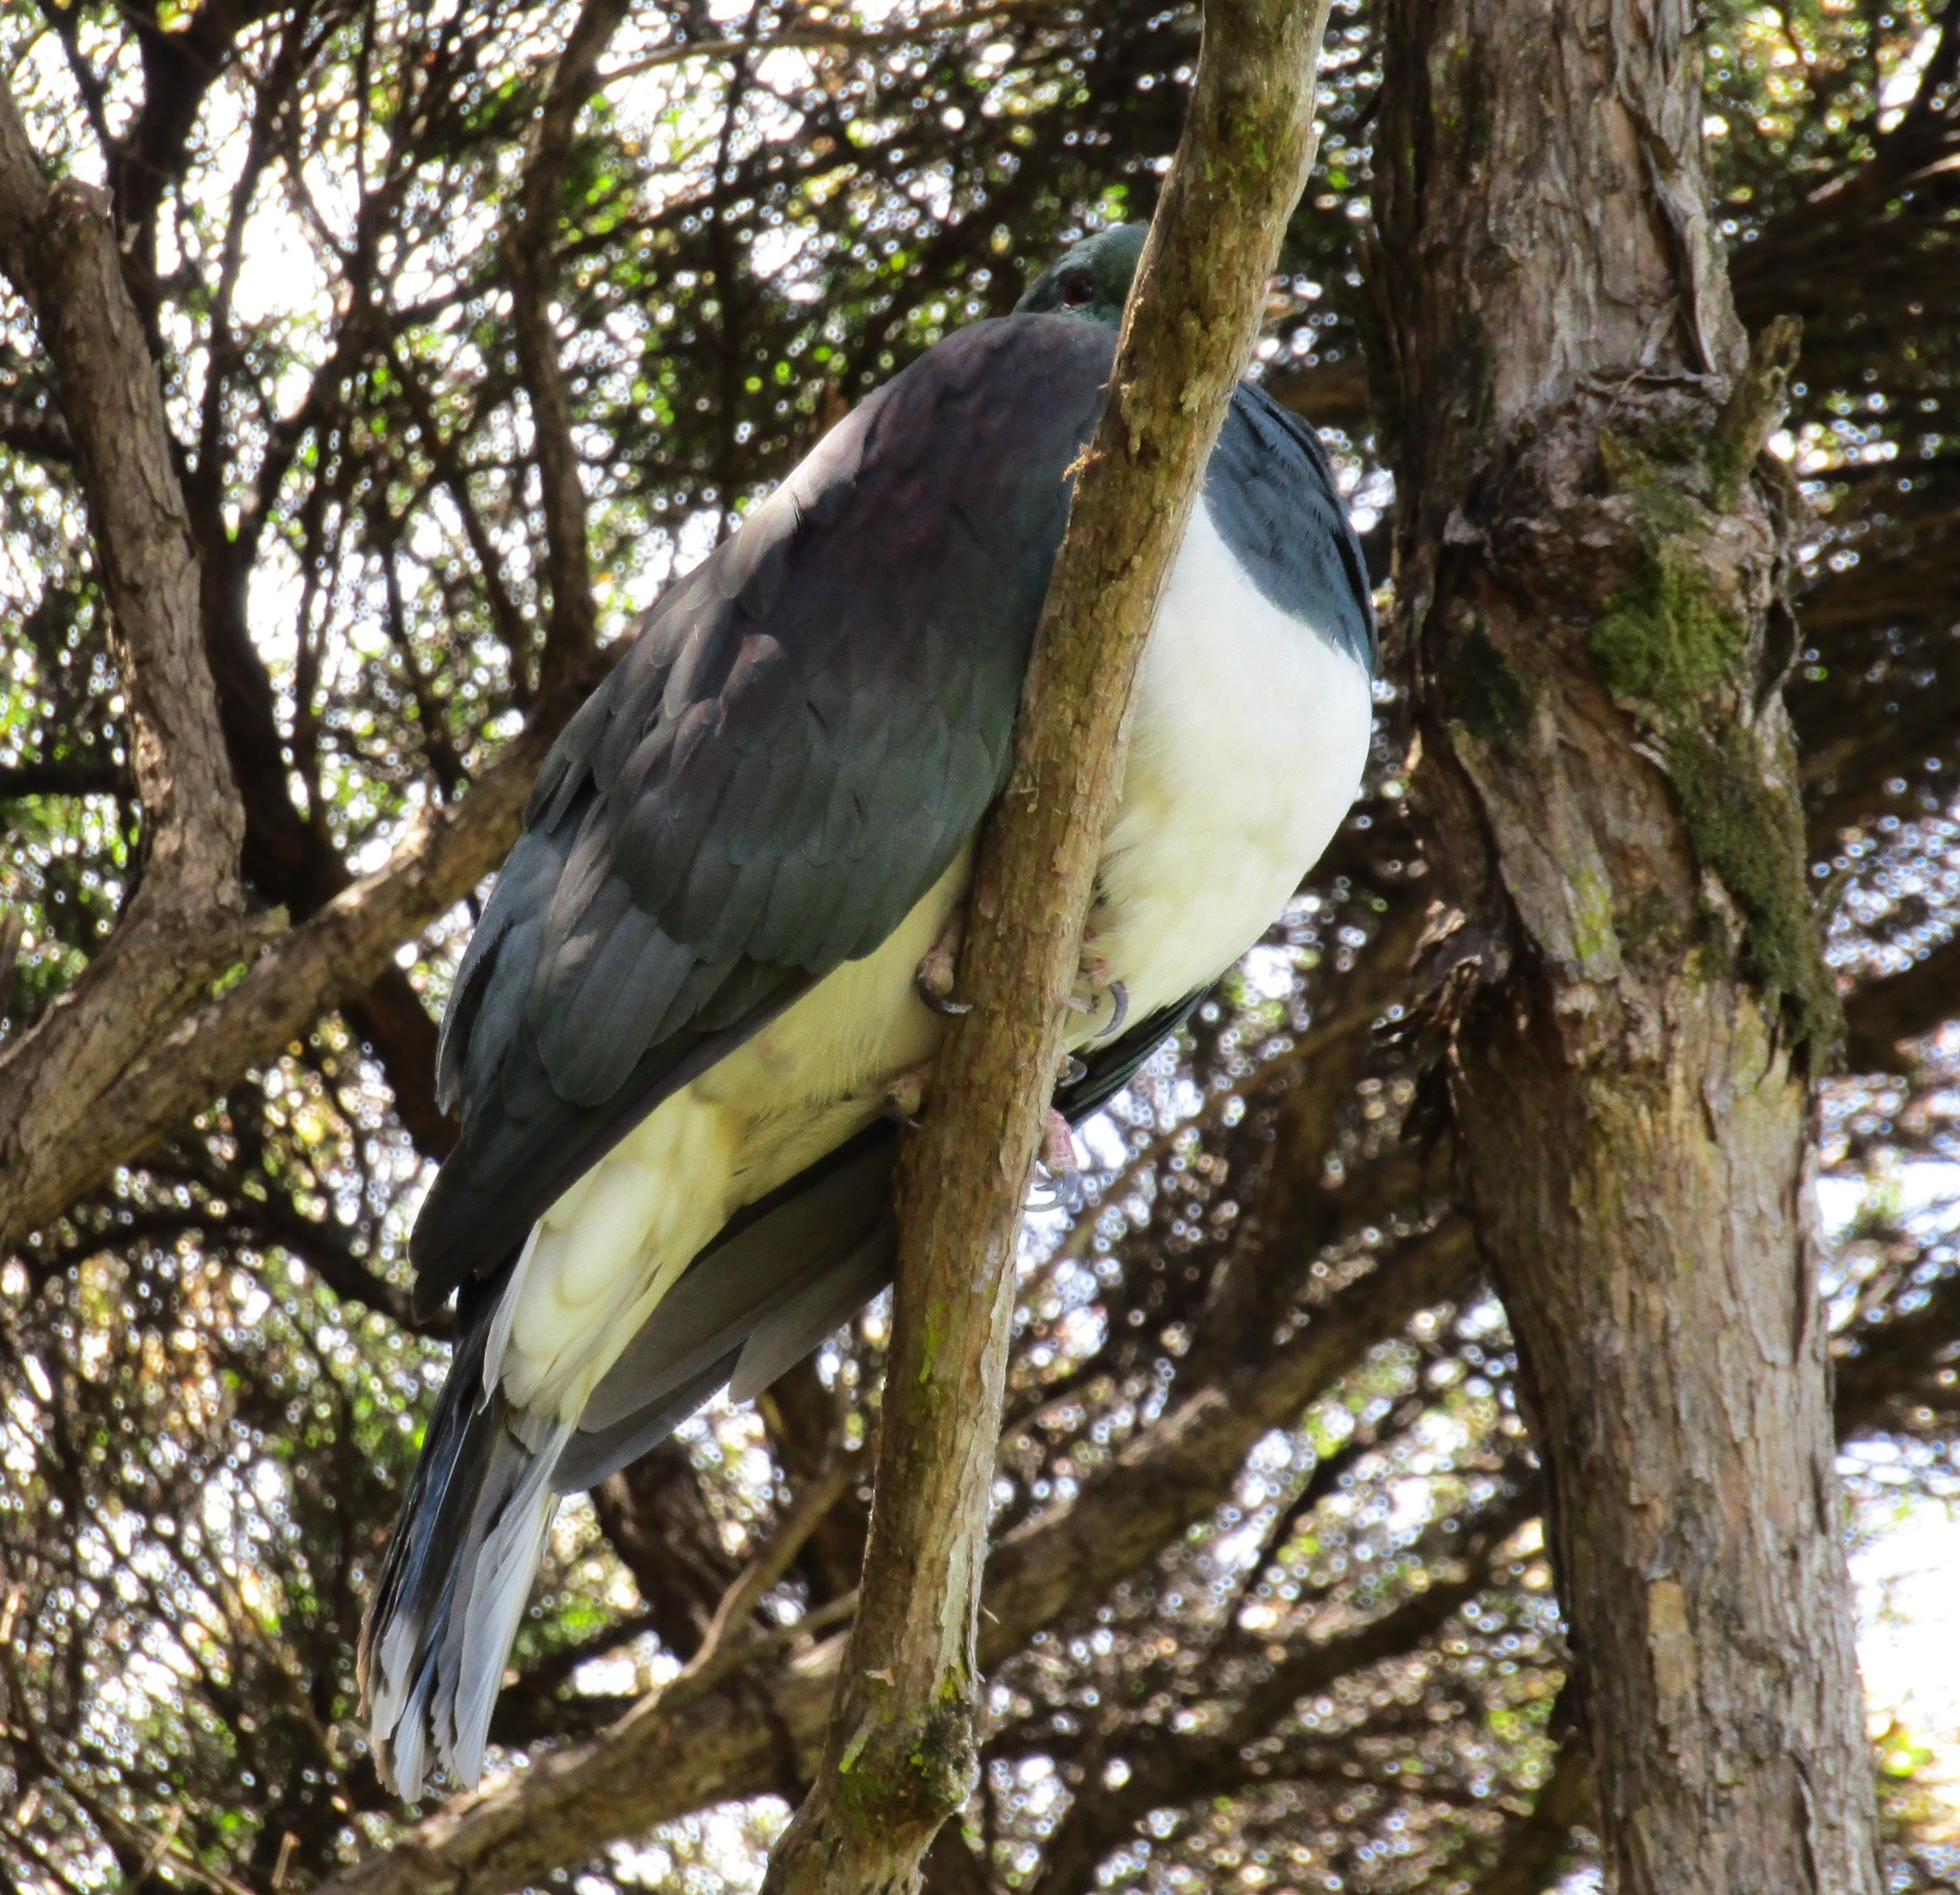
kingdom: Animalia
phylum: Chordata
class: Aves
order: Columbiformes
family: Columbidae
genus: Hemiphaga
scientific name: Hemiphaga novaeseelandiae
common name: New zealand pigeon
